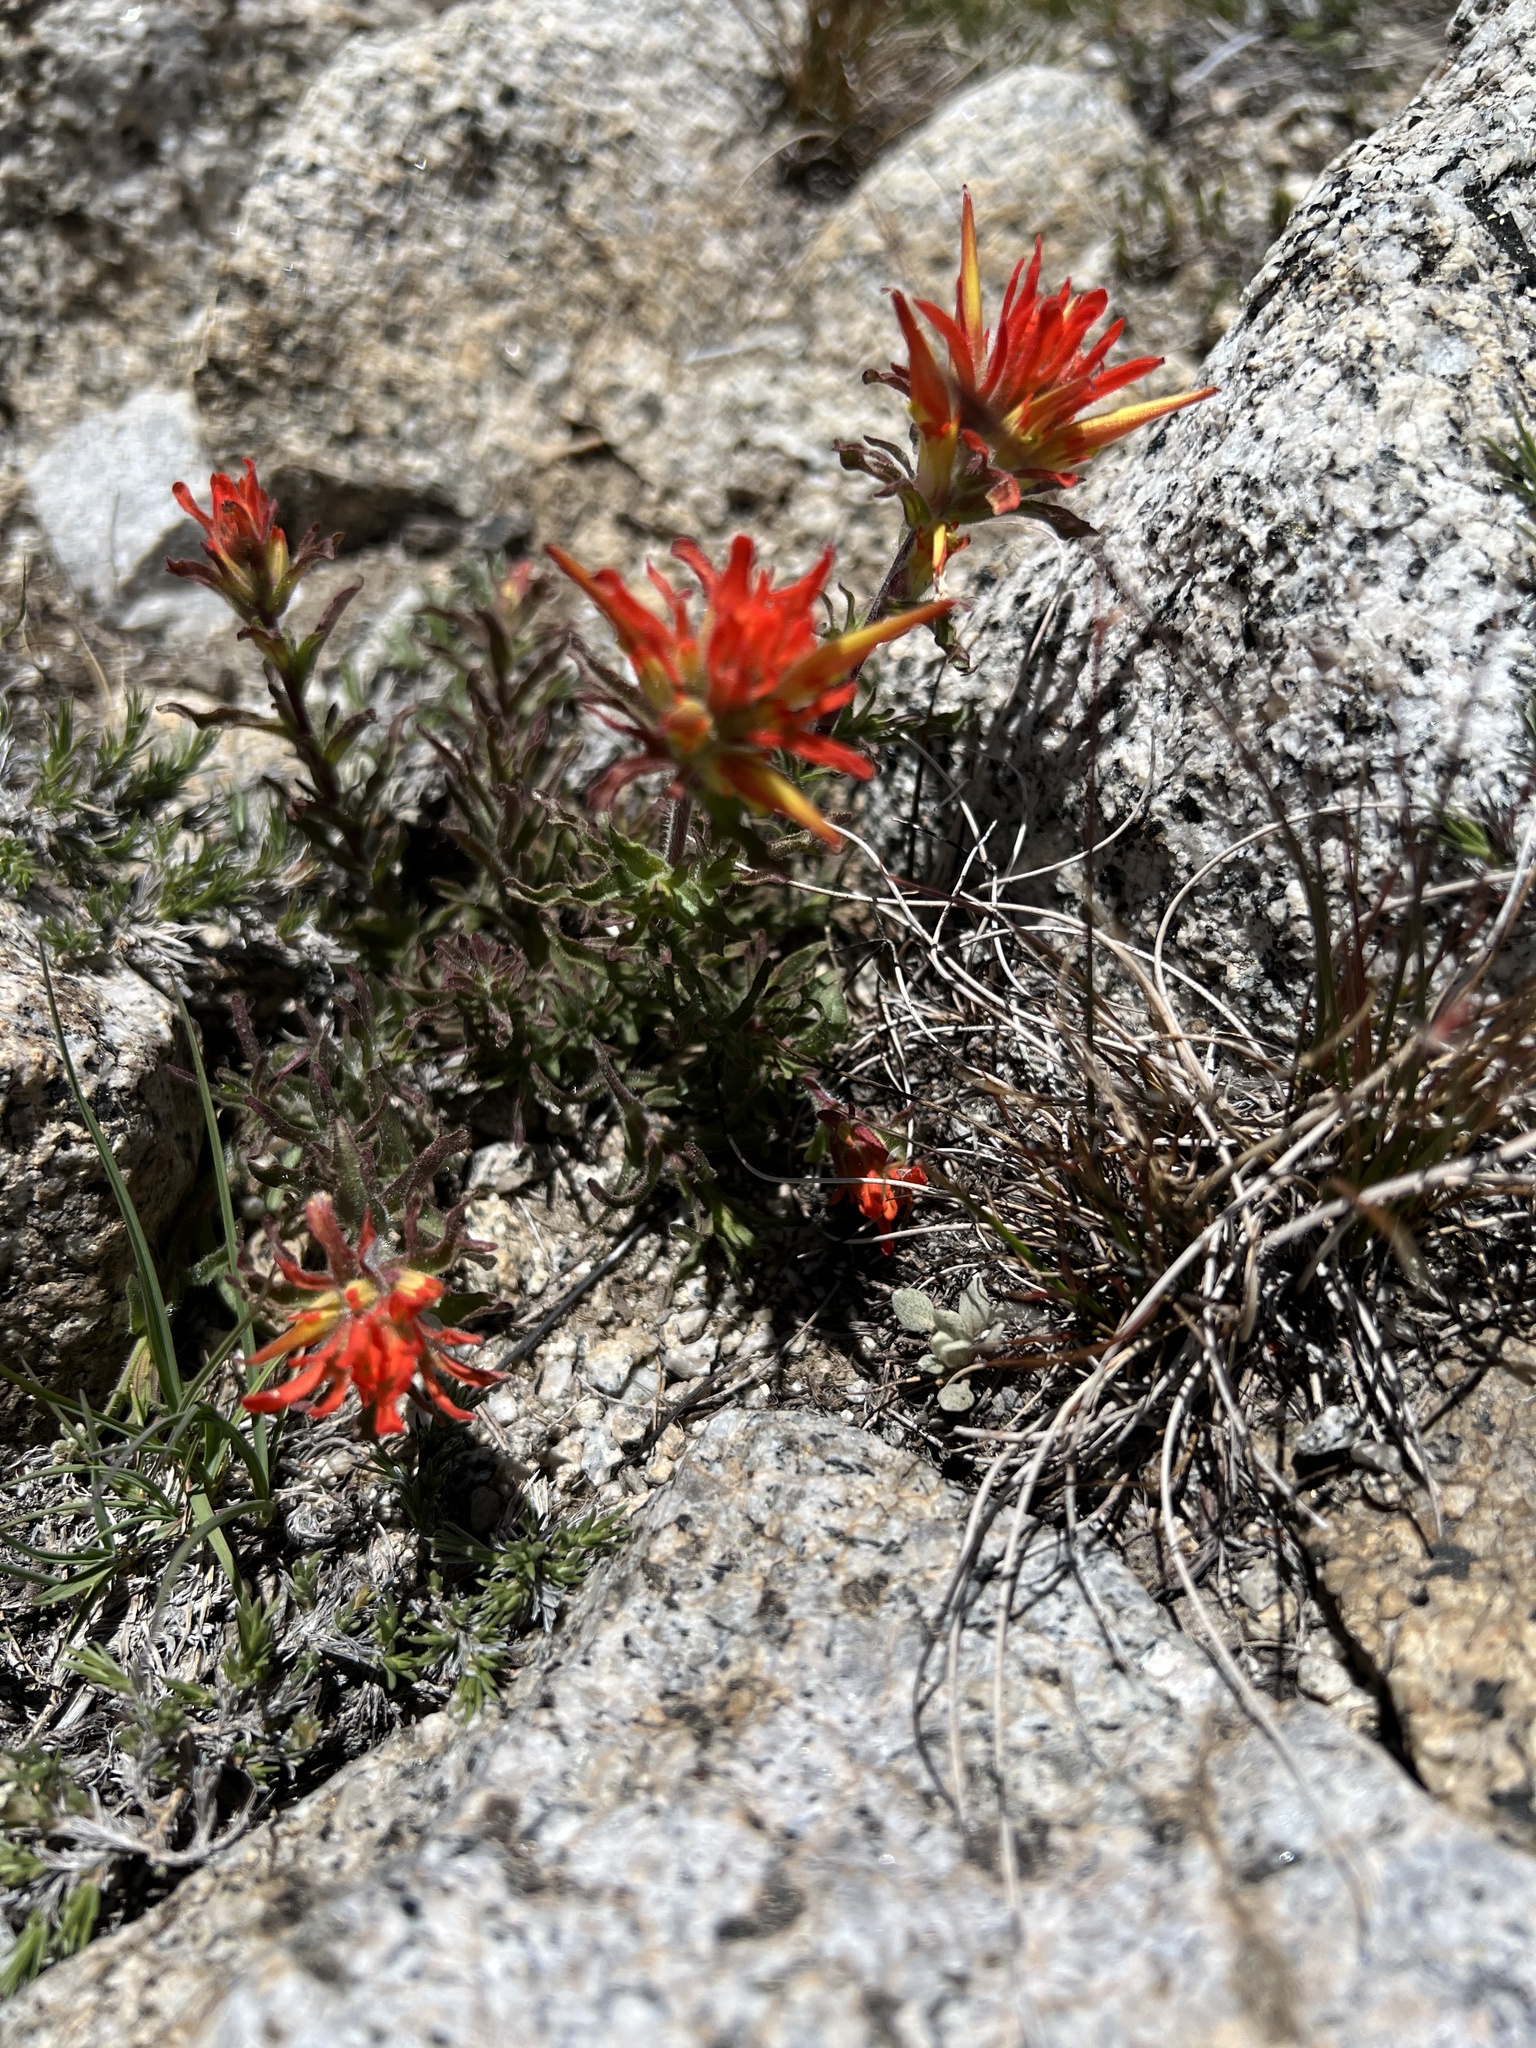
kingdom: Plantae
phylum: Tracheophyta
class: Magnoliopsida
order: Lamiales
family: Orobanchaceae
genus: Castilleja
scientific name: Castilleja applegatei
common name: Wavy-leaf paintbrush
